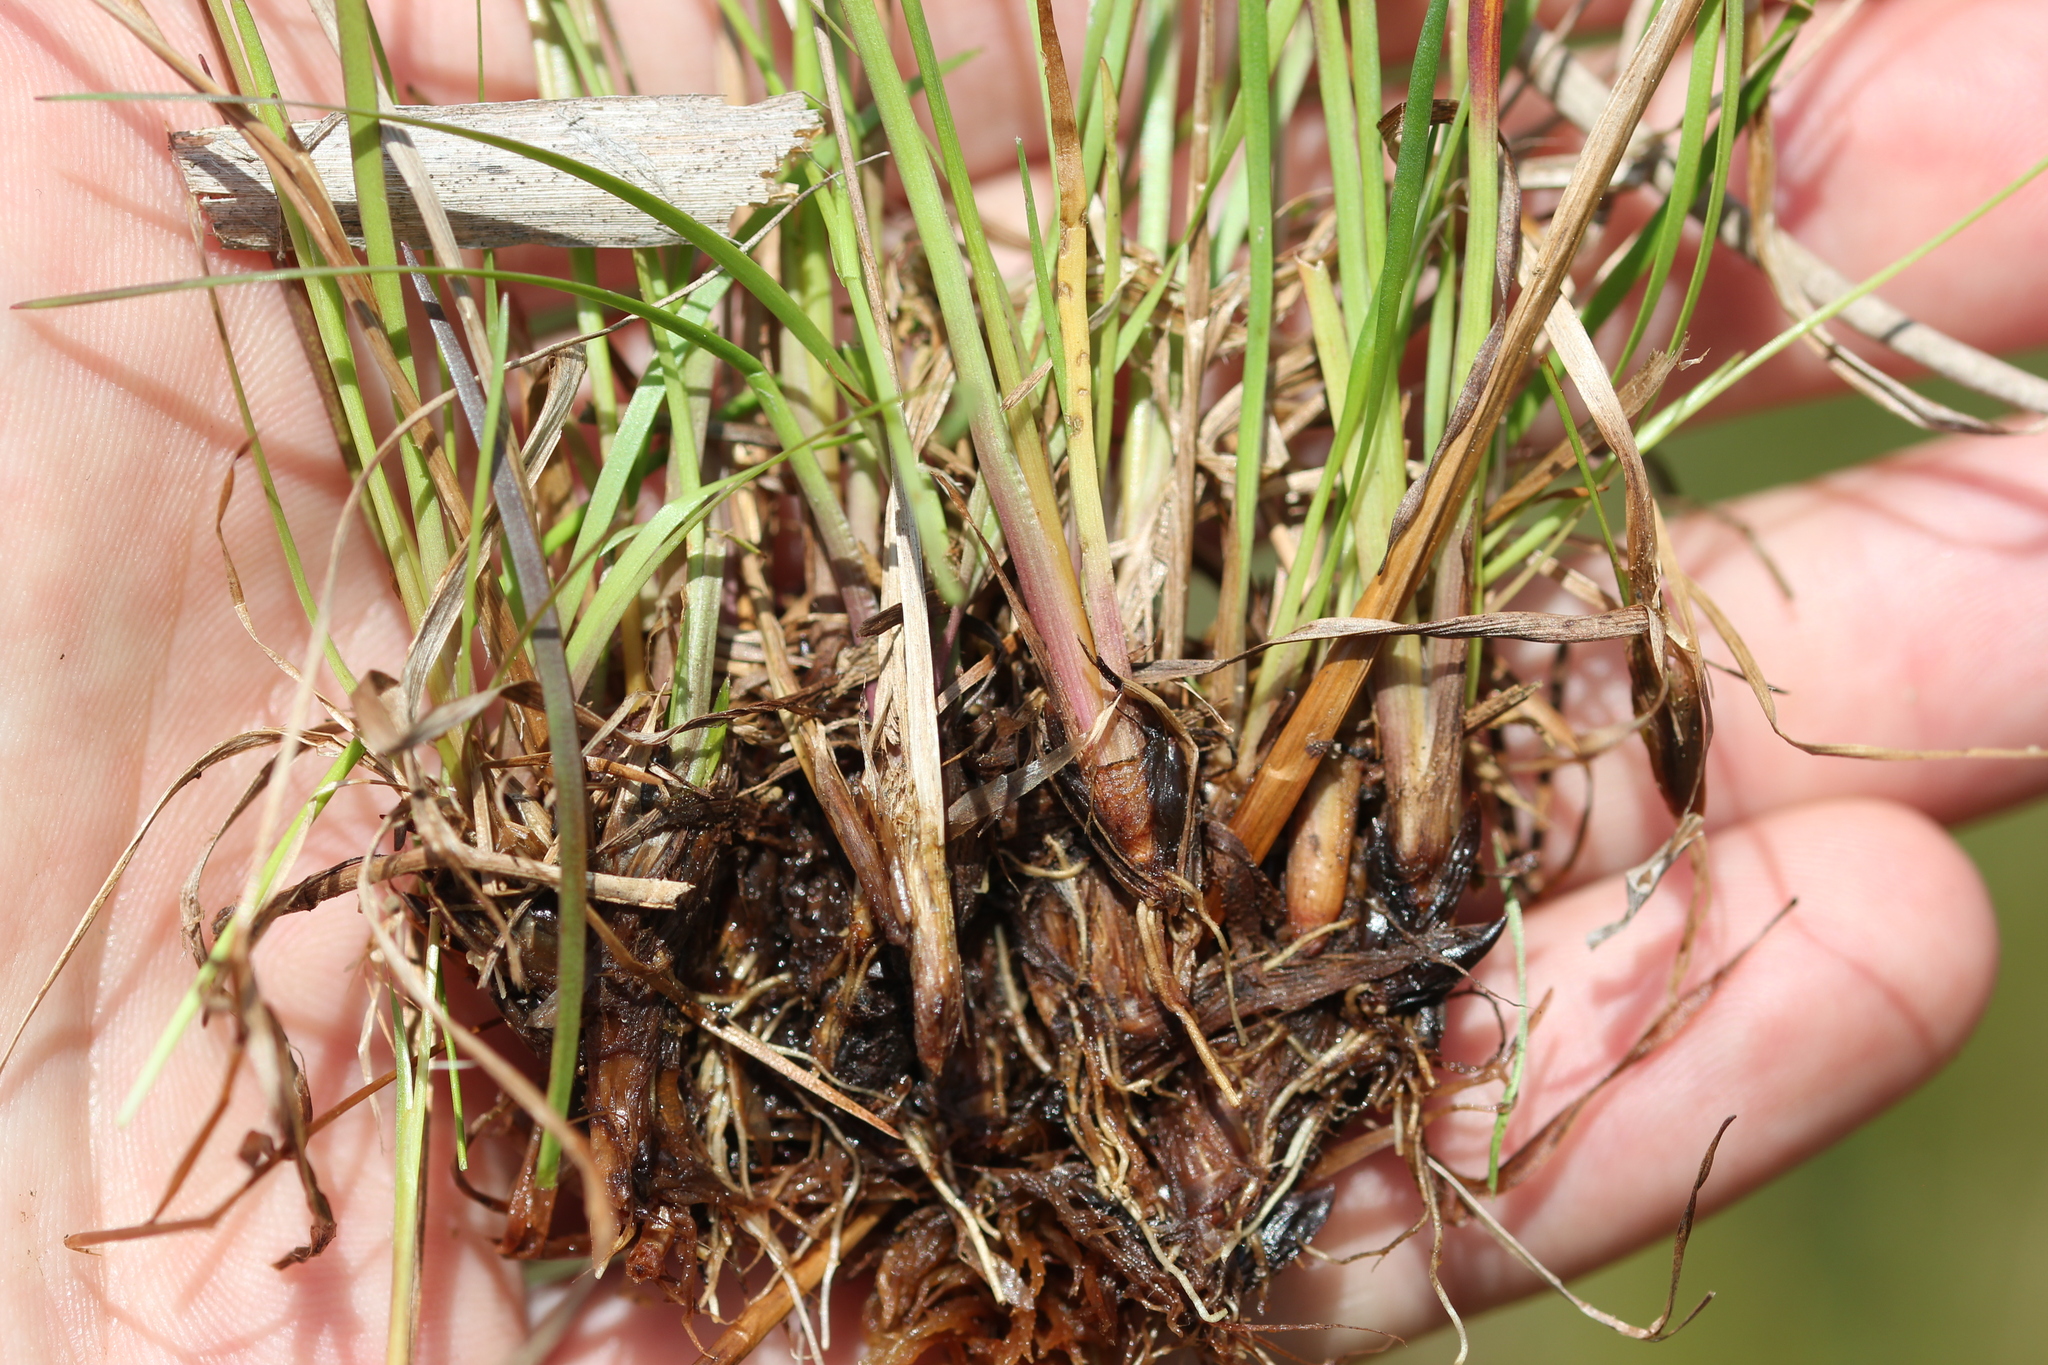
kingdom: Plantae
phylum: Tracheophyta
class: Liliopsida
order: Poales
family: Xyridaceae
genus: Xyris
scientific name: Xyris montana
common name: Northern yellow-eyed-grass
